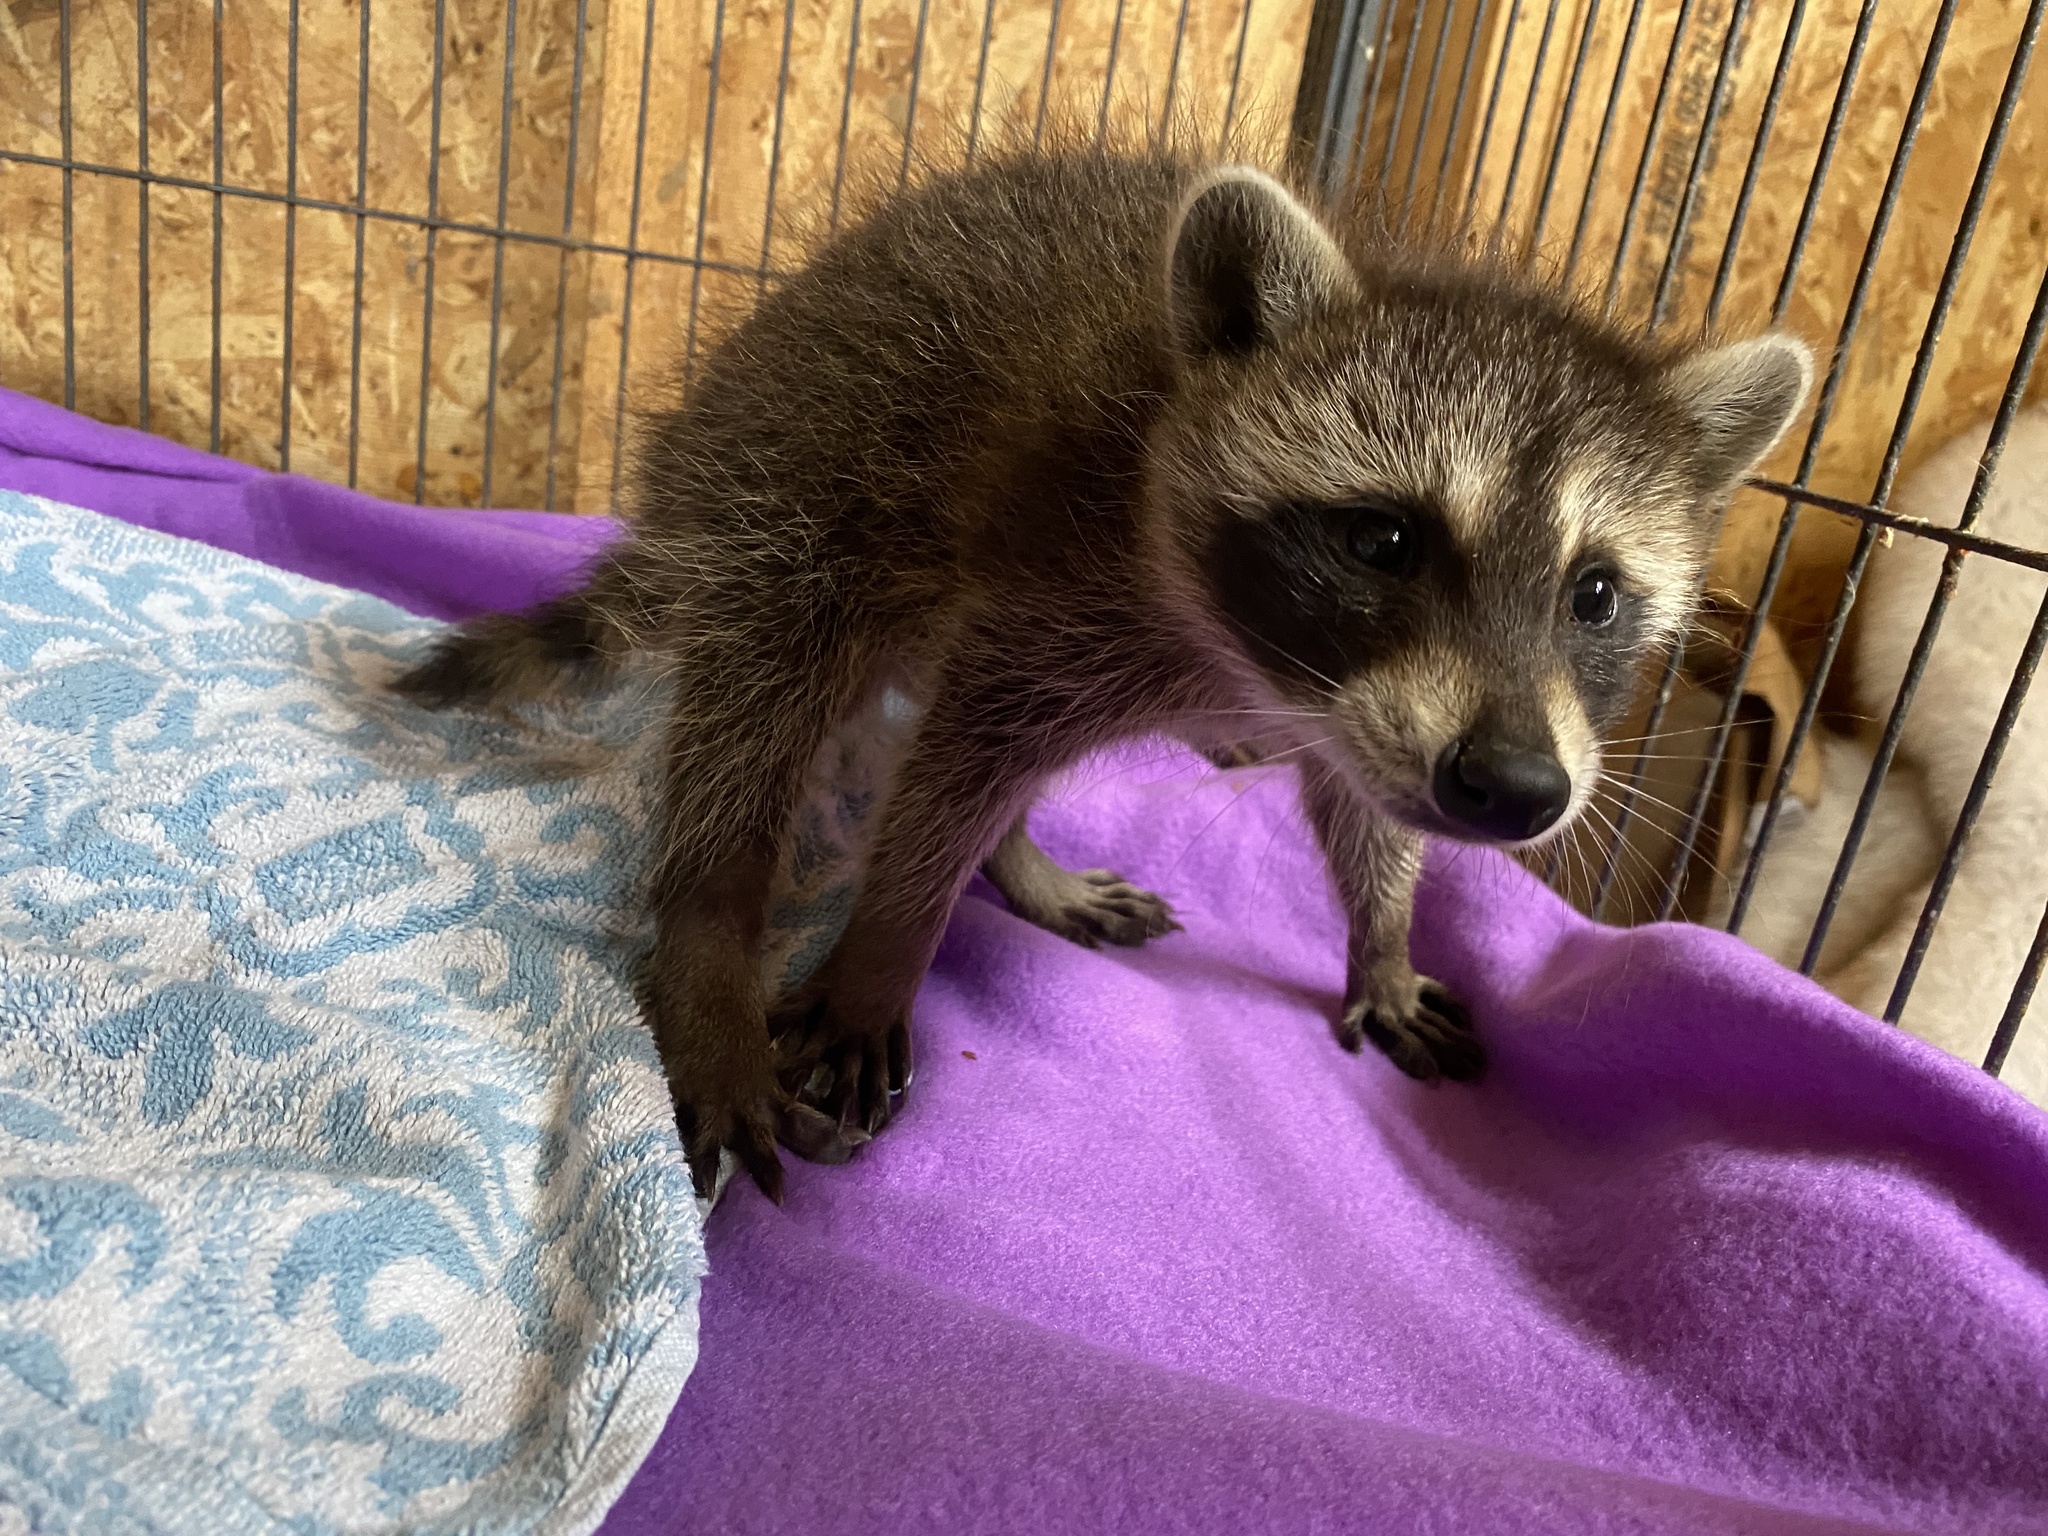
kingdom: Animalia
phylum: Chordata
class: Mammalia
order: Carnivora
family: Procyonidae
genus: Procyon
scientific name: Procyon lotor
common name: Raccoon
